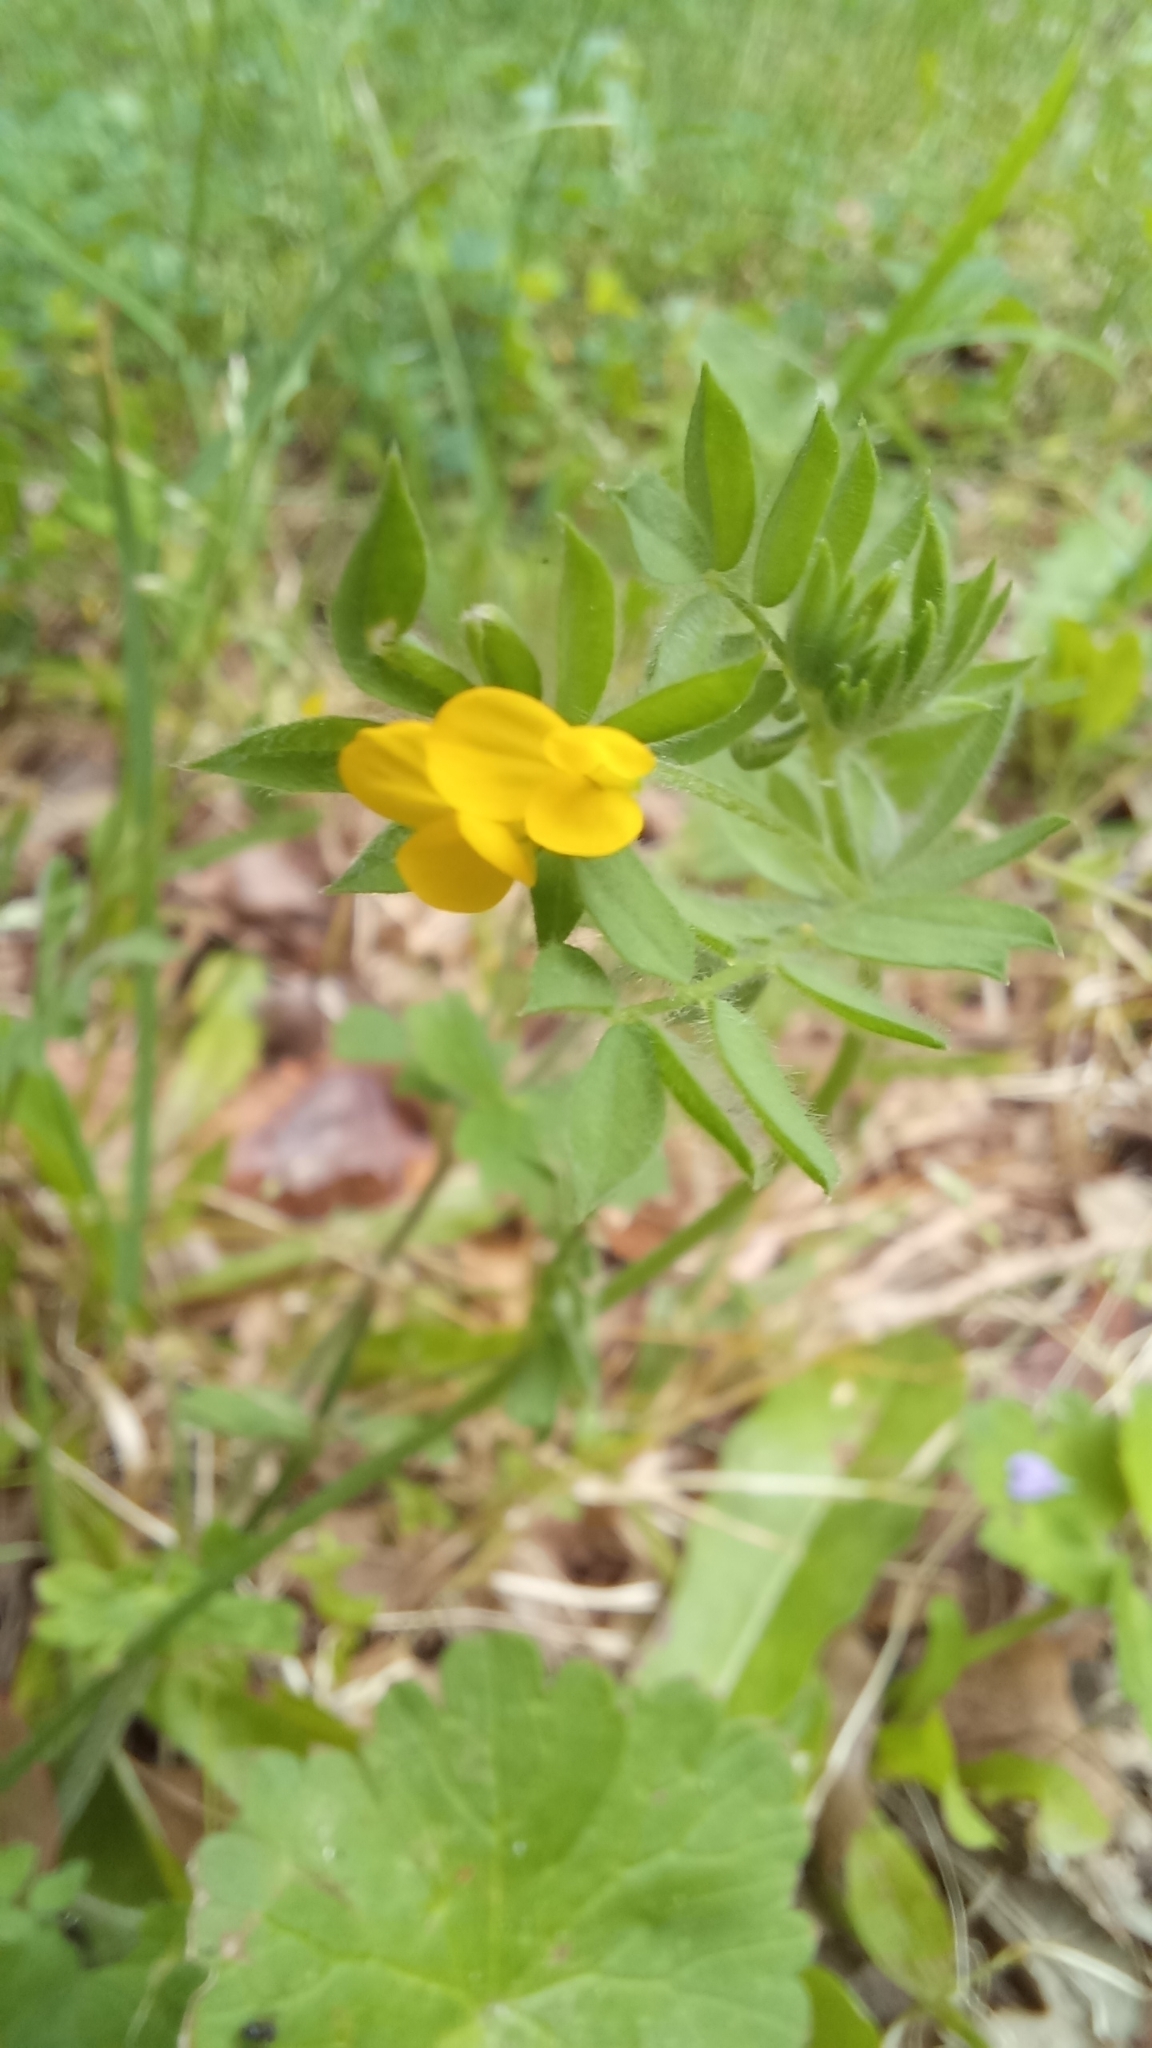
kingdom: Plantae
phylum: Tracheophyta
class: Magnoliopsida
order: Fabales
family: Fabaceae
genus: Ornithopus
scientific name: Ornithopus compressus
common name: Yellow serradella
